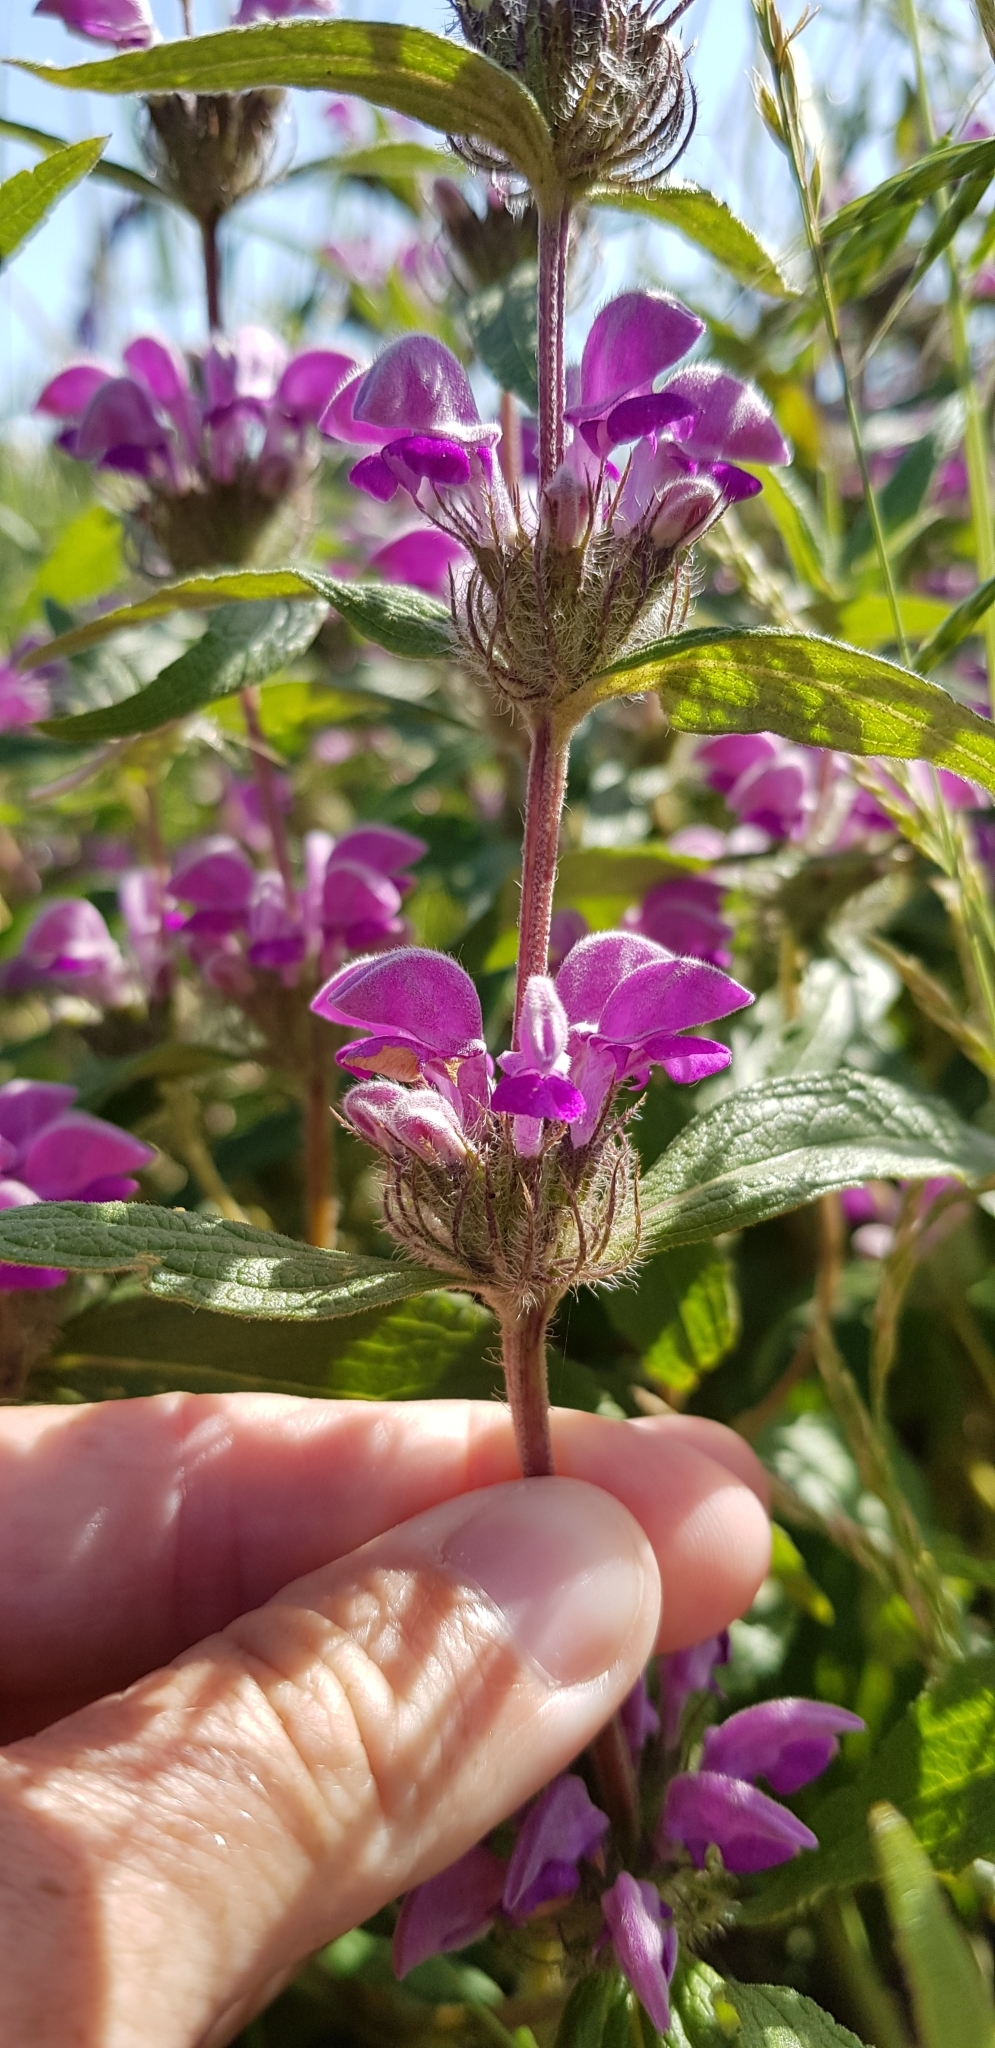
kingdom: Plantae
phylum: Tracheophyta
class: Magnoliopsida
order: Lamiales
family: Lamiaceae
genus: Phlomis
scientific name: Phlomis herba-venti
